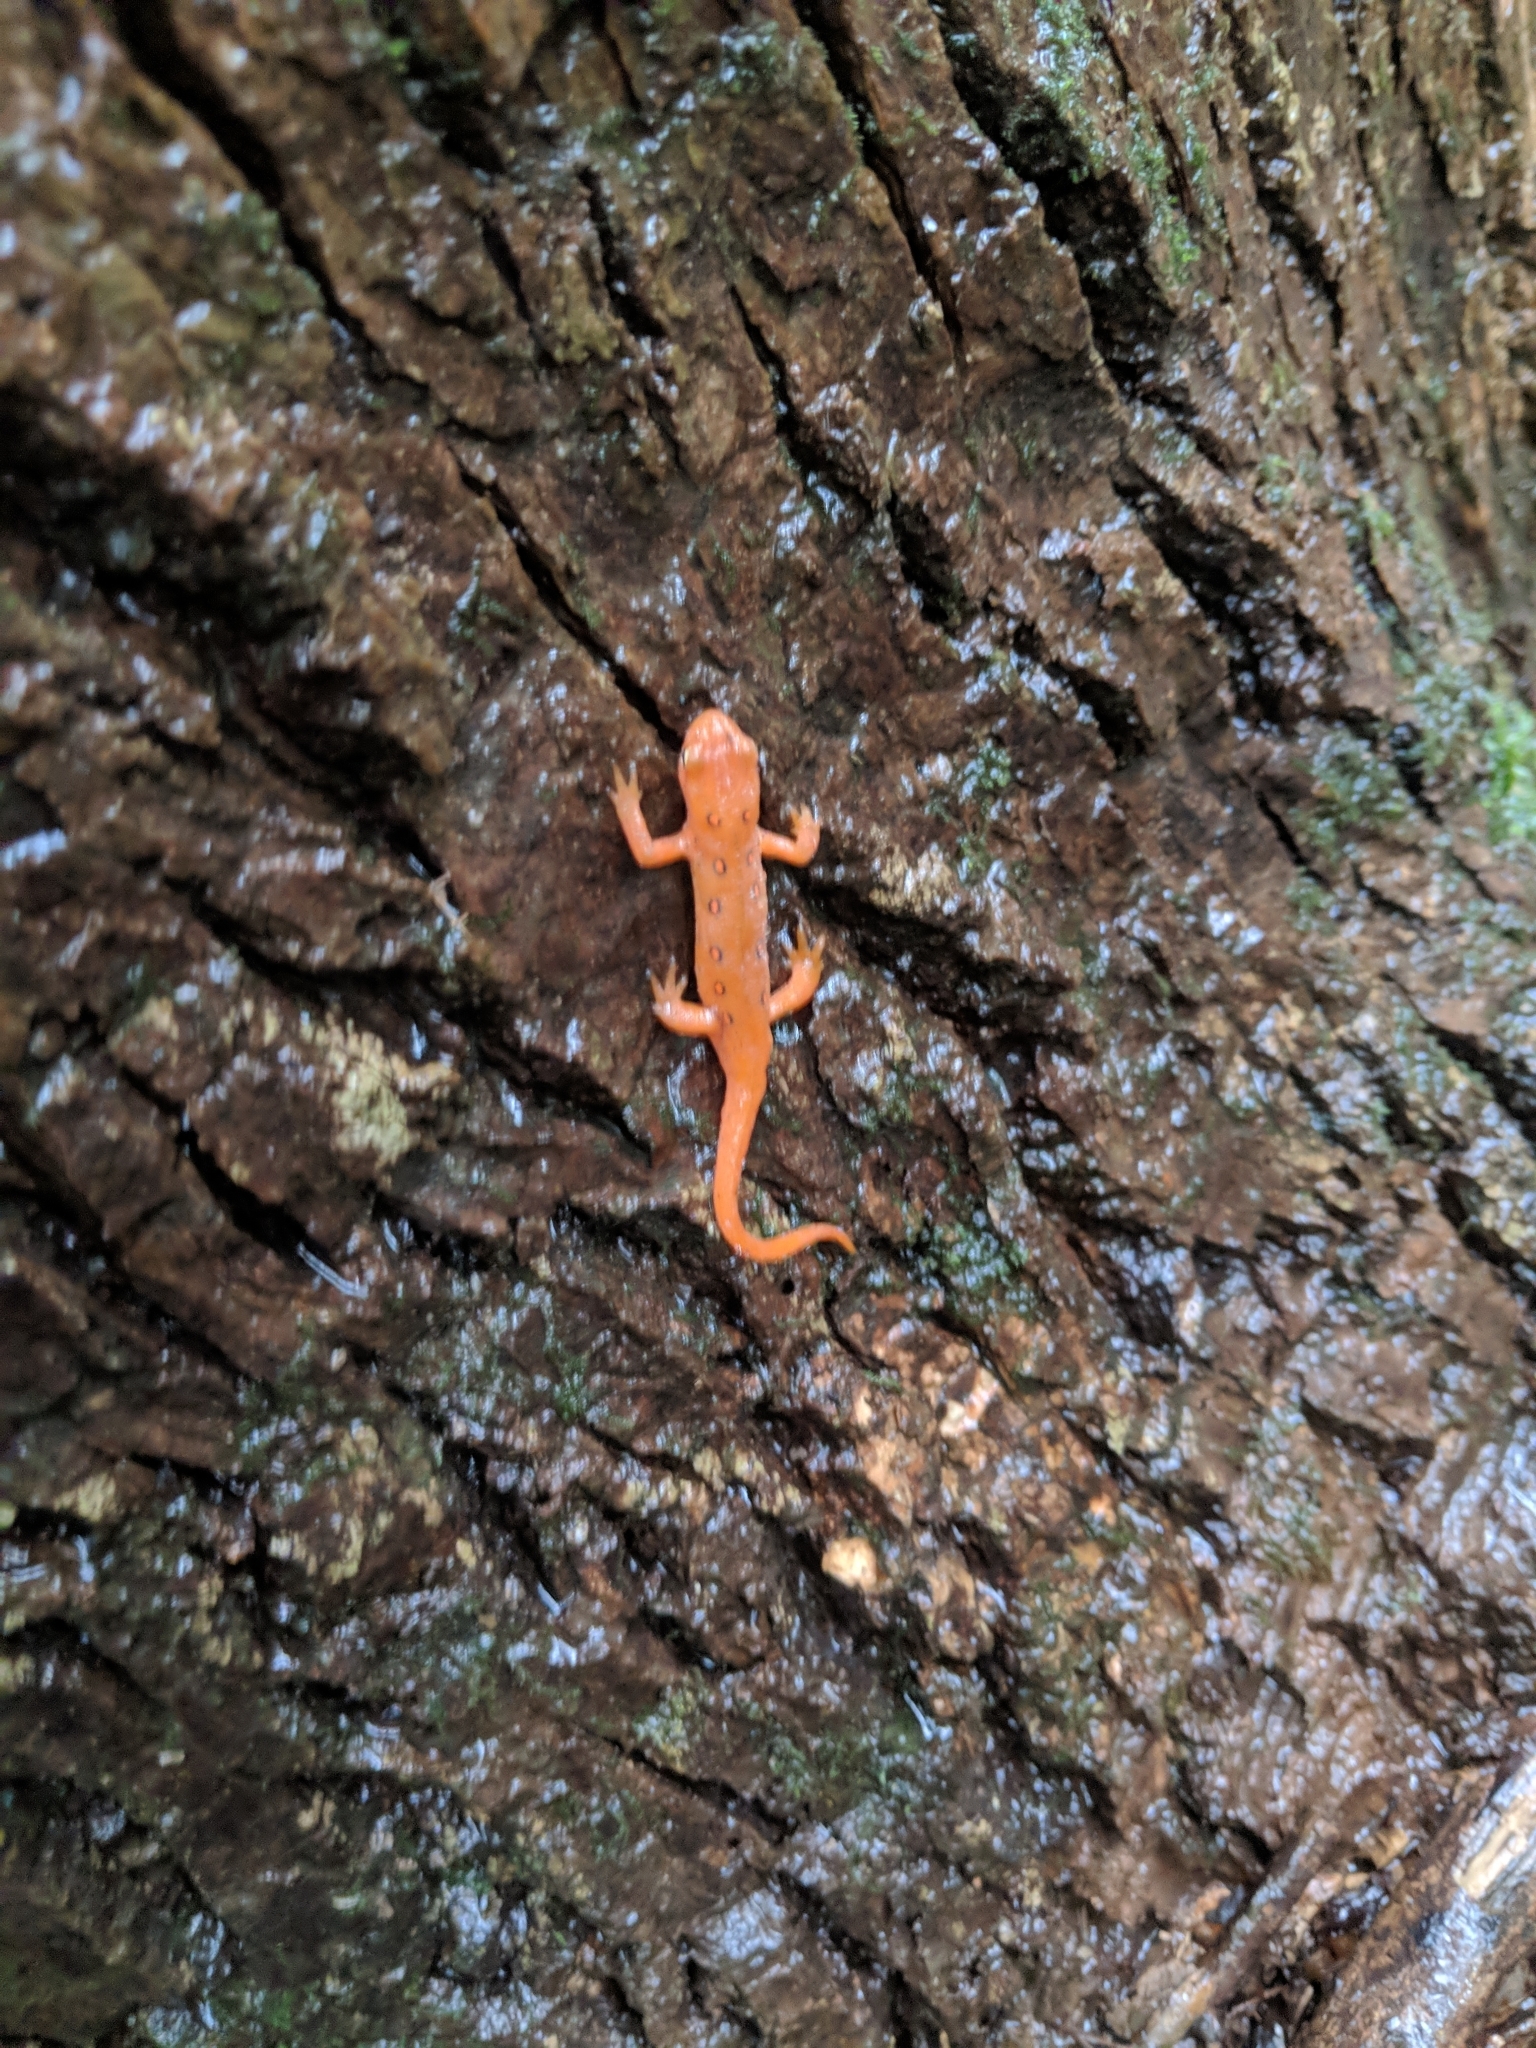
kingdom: Animalia
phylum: Chordata
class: Amphibia
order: Caudata
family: Salamandridae
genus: Notophthalmus
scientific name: Notophthalmus viridescens
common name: Eastern newt
